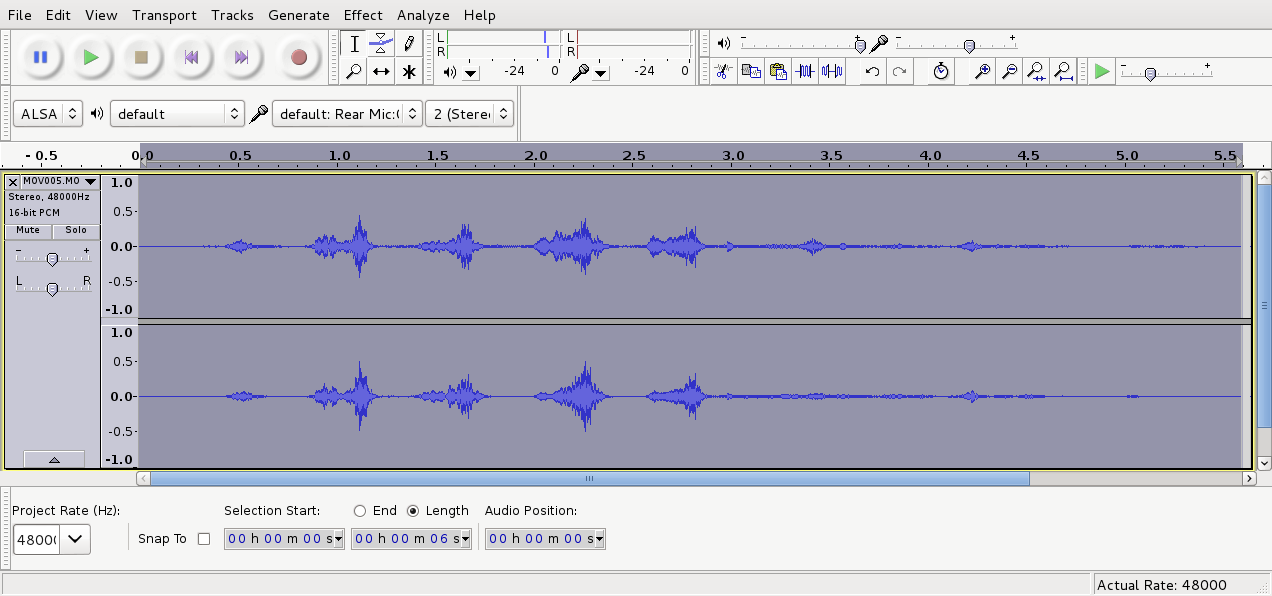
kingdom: Animalia
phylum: Chordata
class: Aves
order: Cuculiformes
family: Cuculidae
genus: Chrysococcyx
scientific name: Chrysococcyx lucidus
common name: Shining bronze cuckoo
